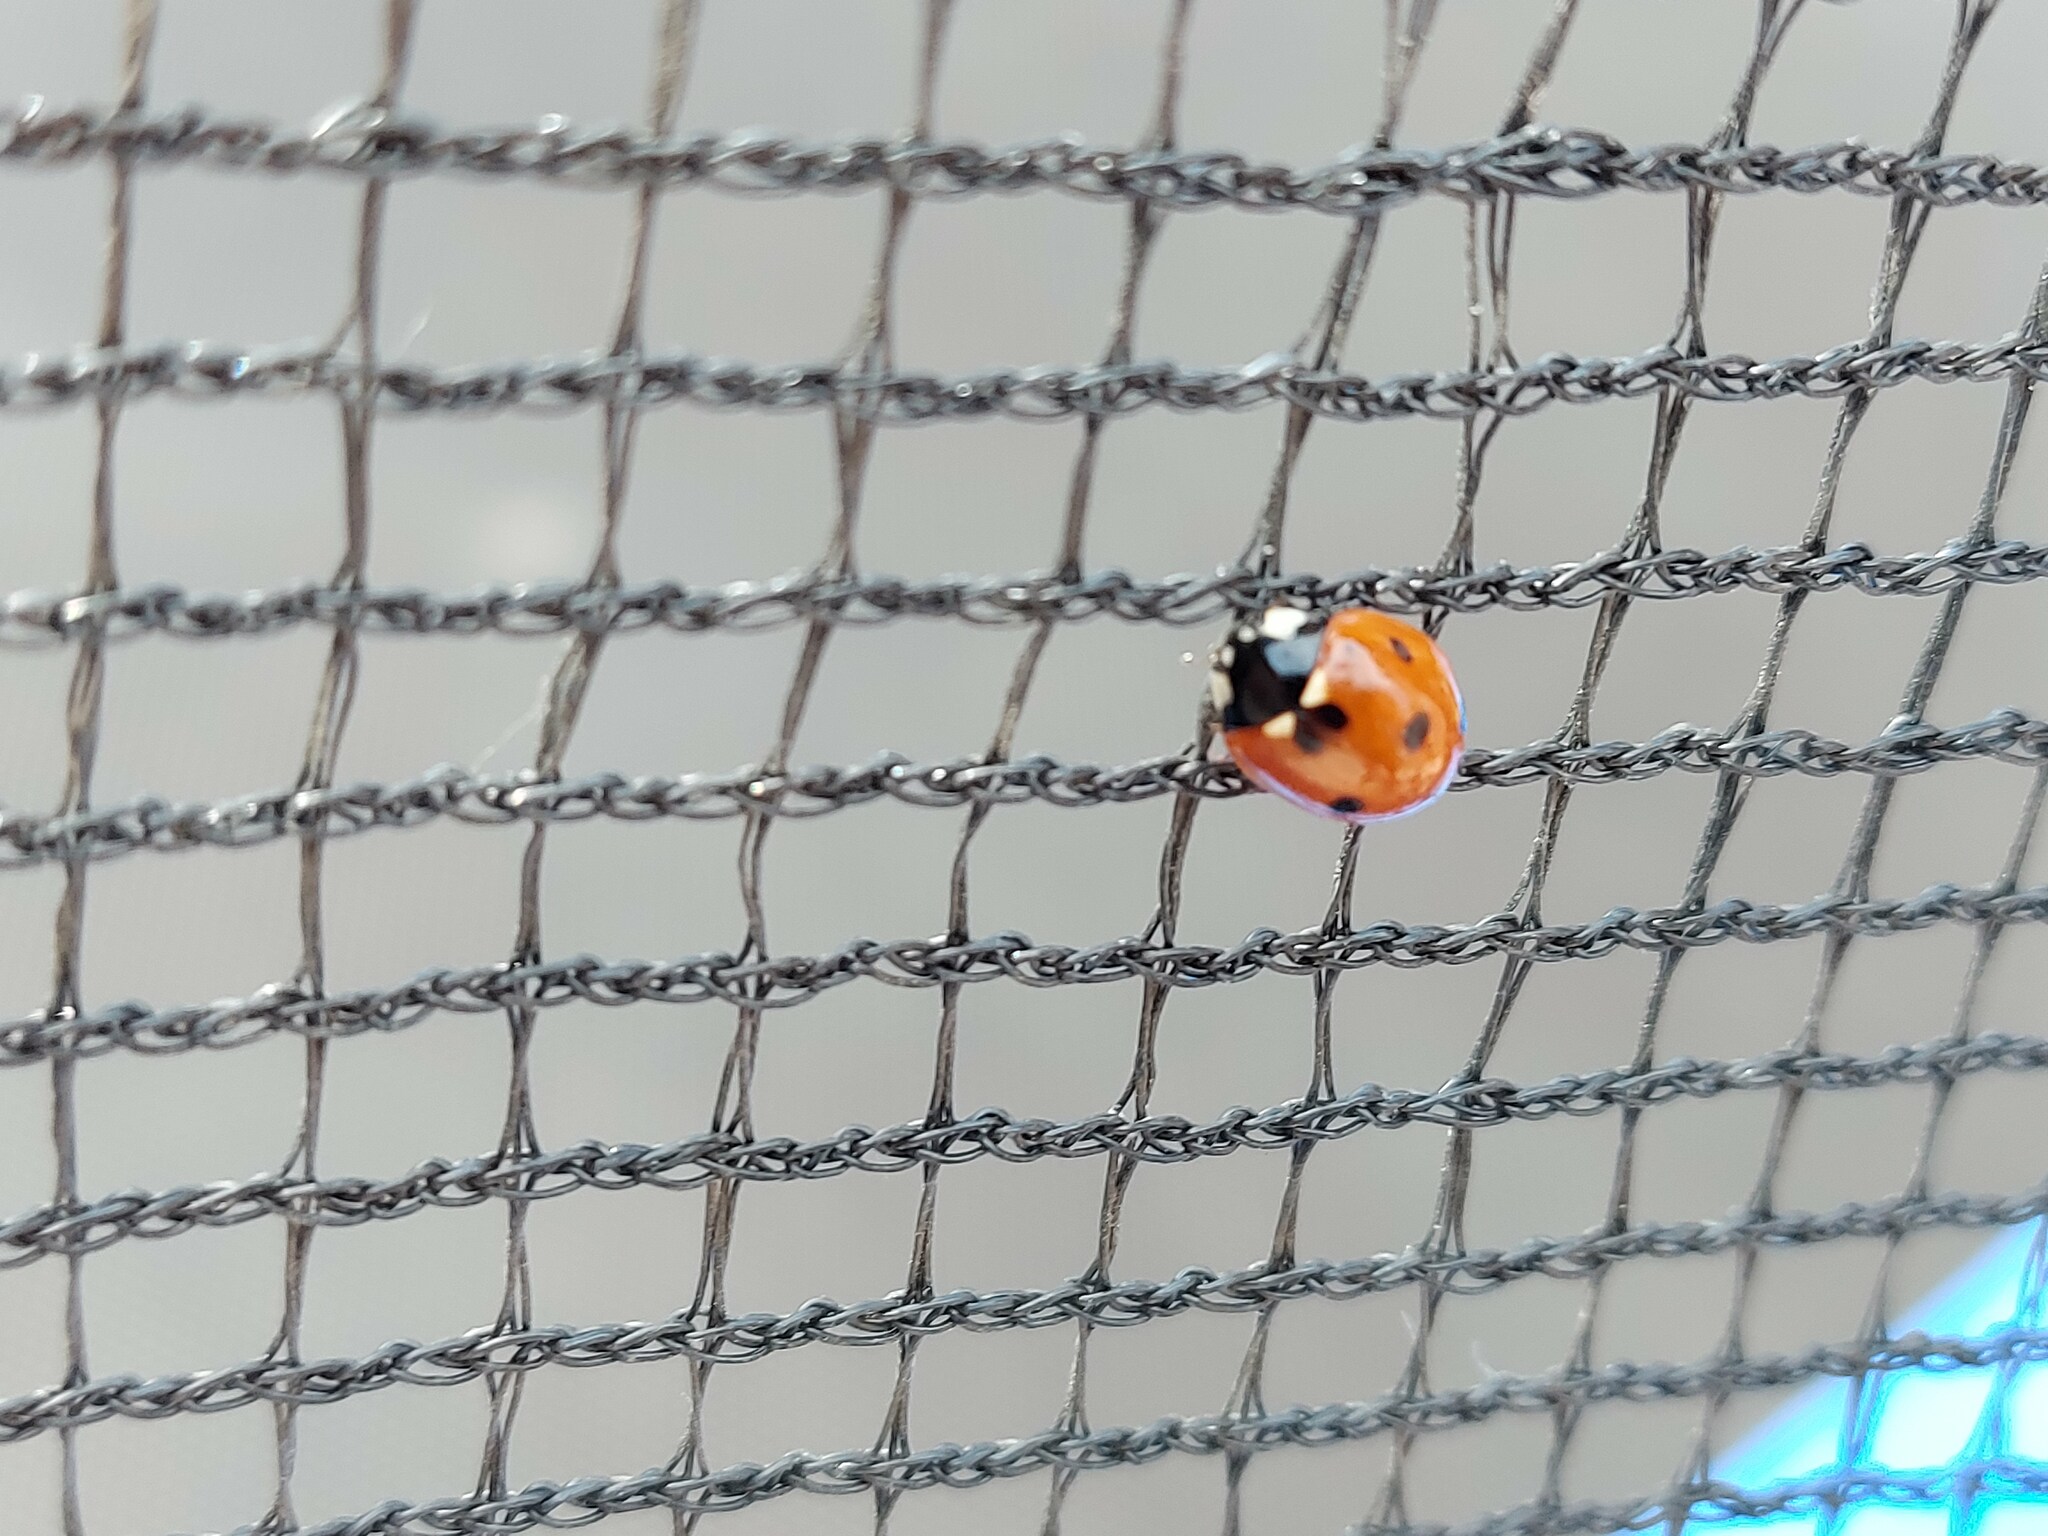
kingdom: Animalia
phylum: Arthropoda
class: Insecta
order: Coleoptera
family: Coccinellidae
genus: Coccinella
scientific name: Coccinella septempunctata
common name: Sevenspotted lady beetle
